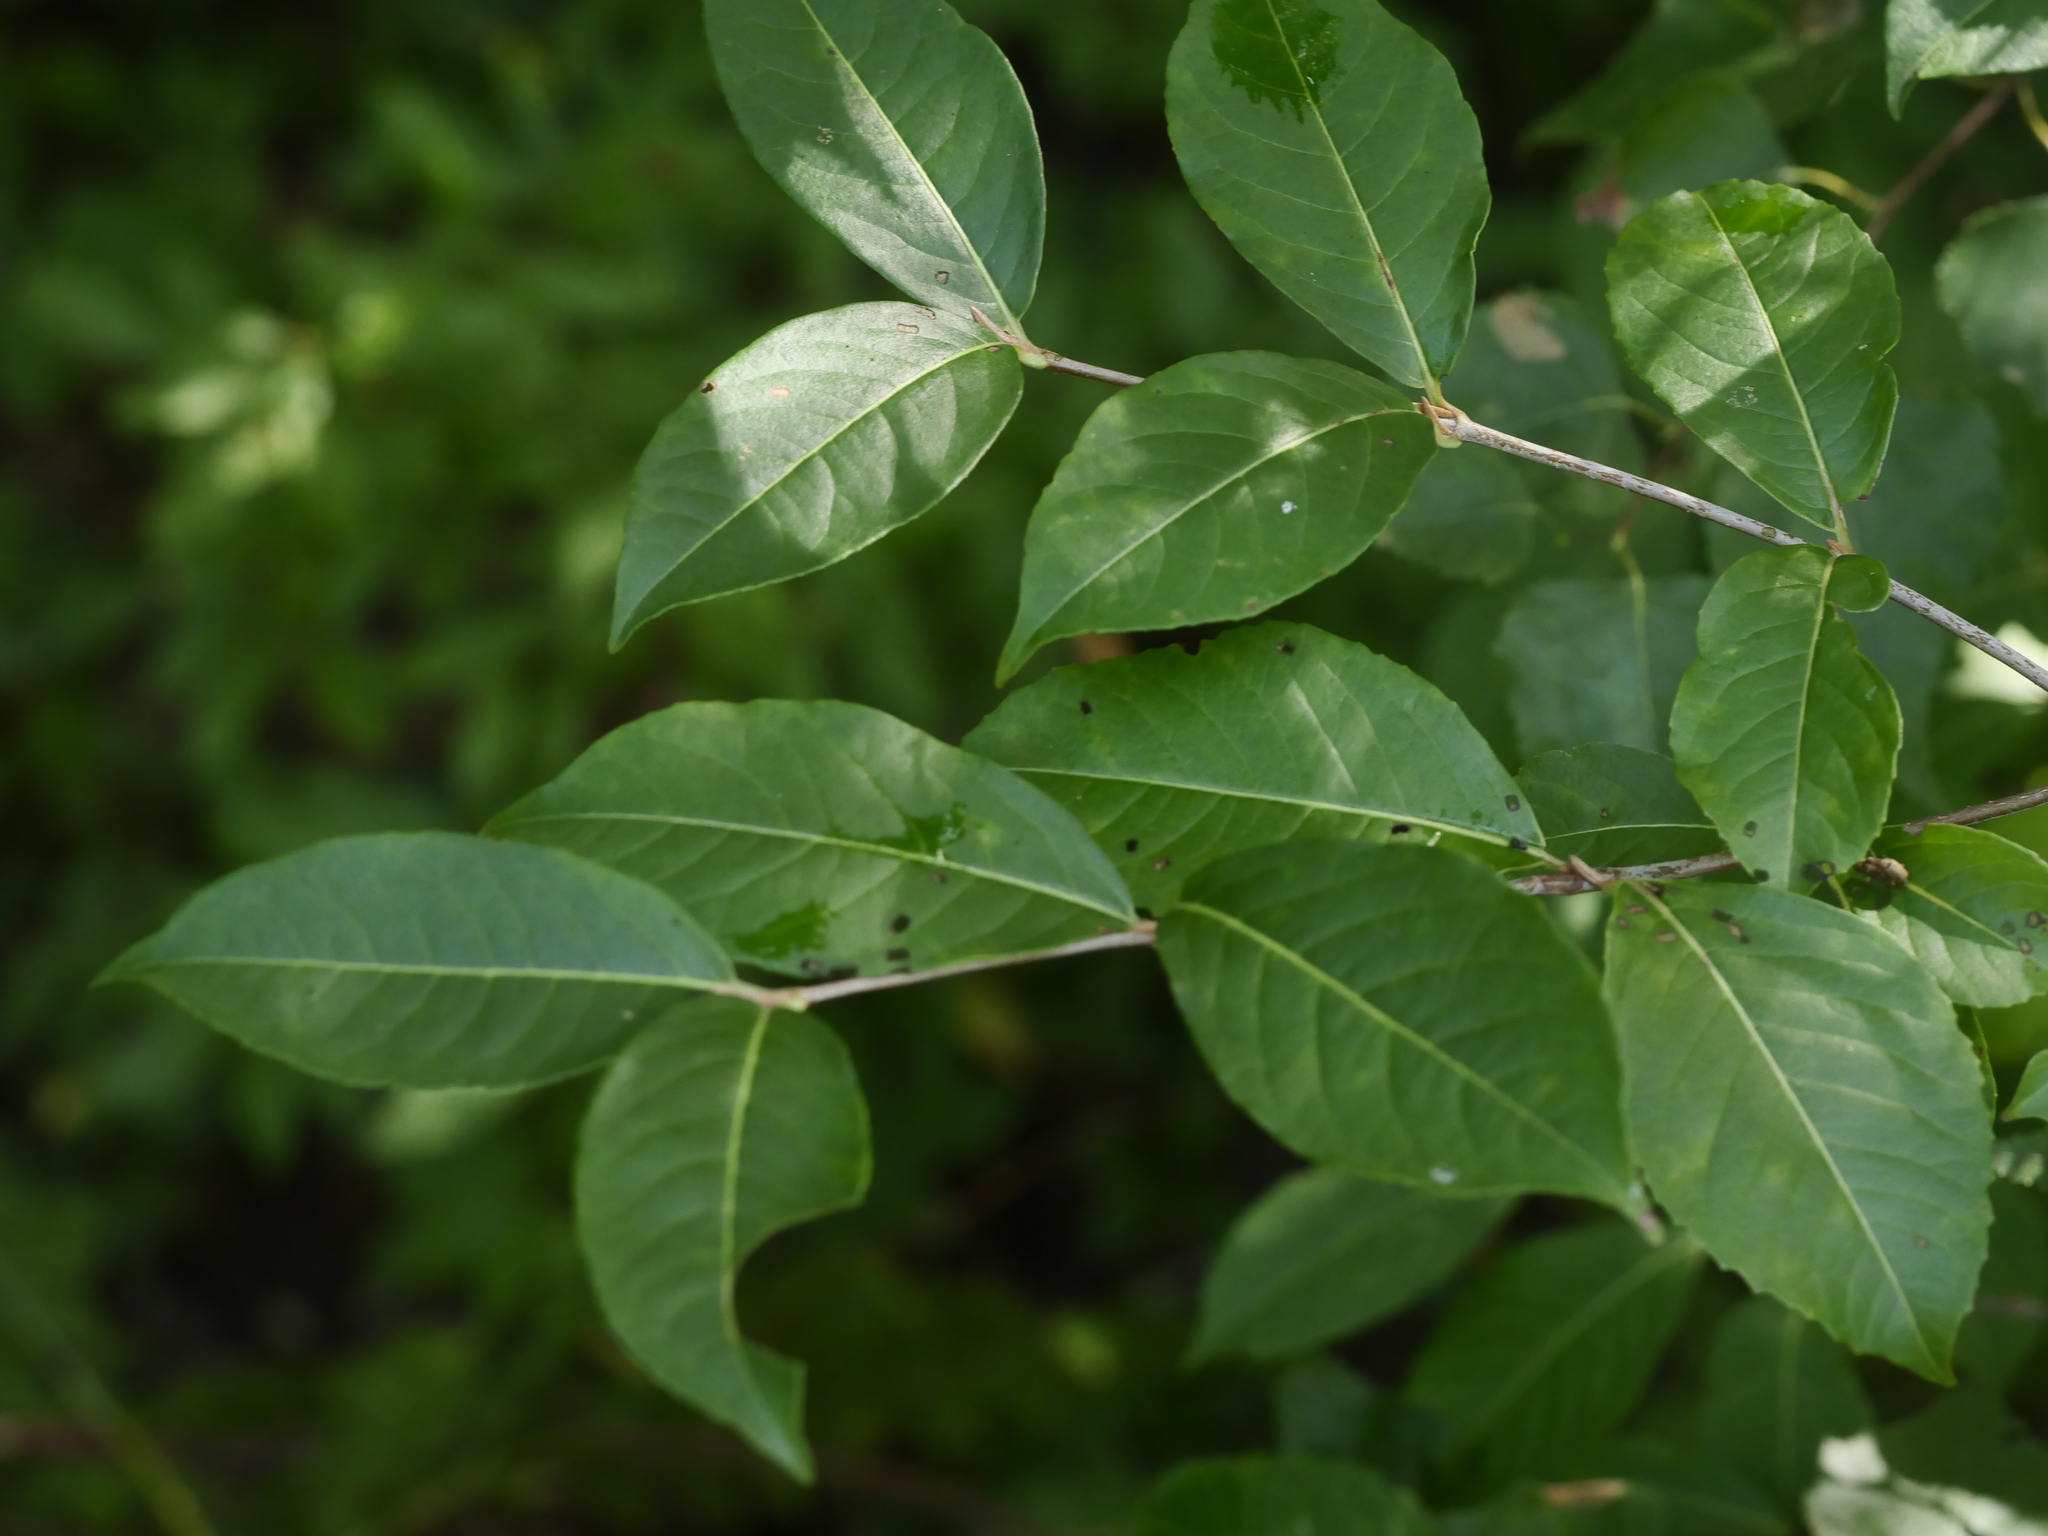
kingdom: Plantae
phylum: Tracheophyta
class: Magnoliopsida
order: Dipsacales
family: Viburnaceae
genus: Viburnum
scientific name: Viburnum cassinoides
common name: Swamp haw
